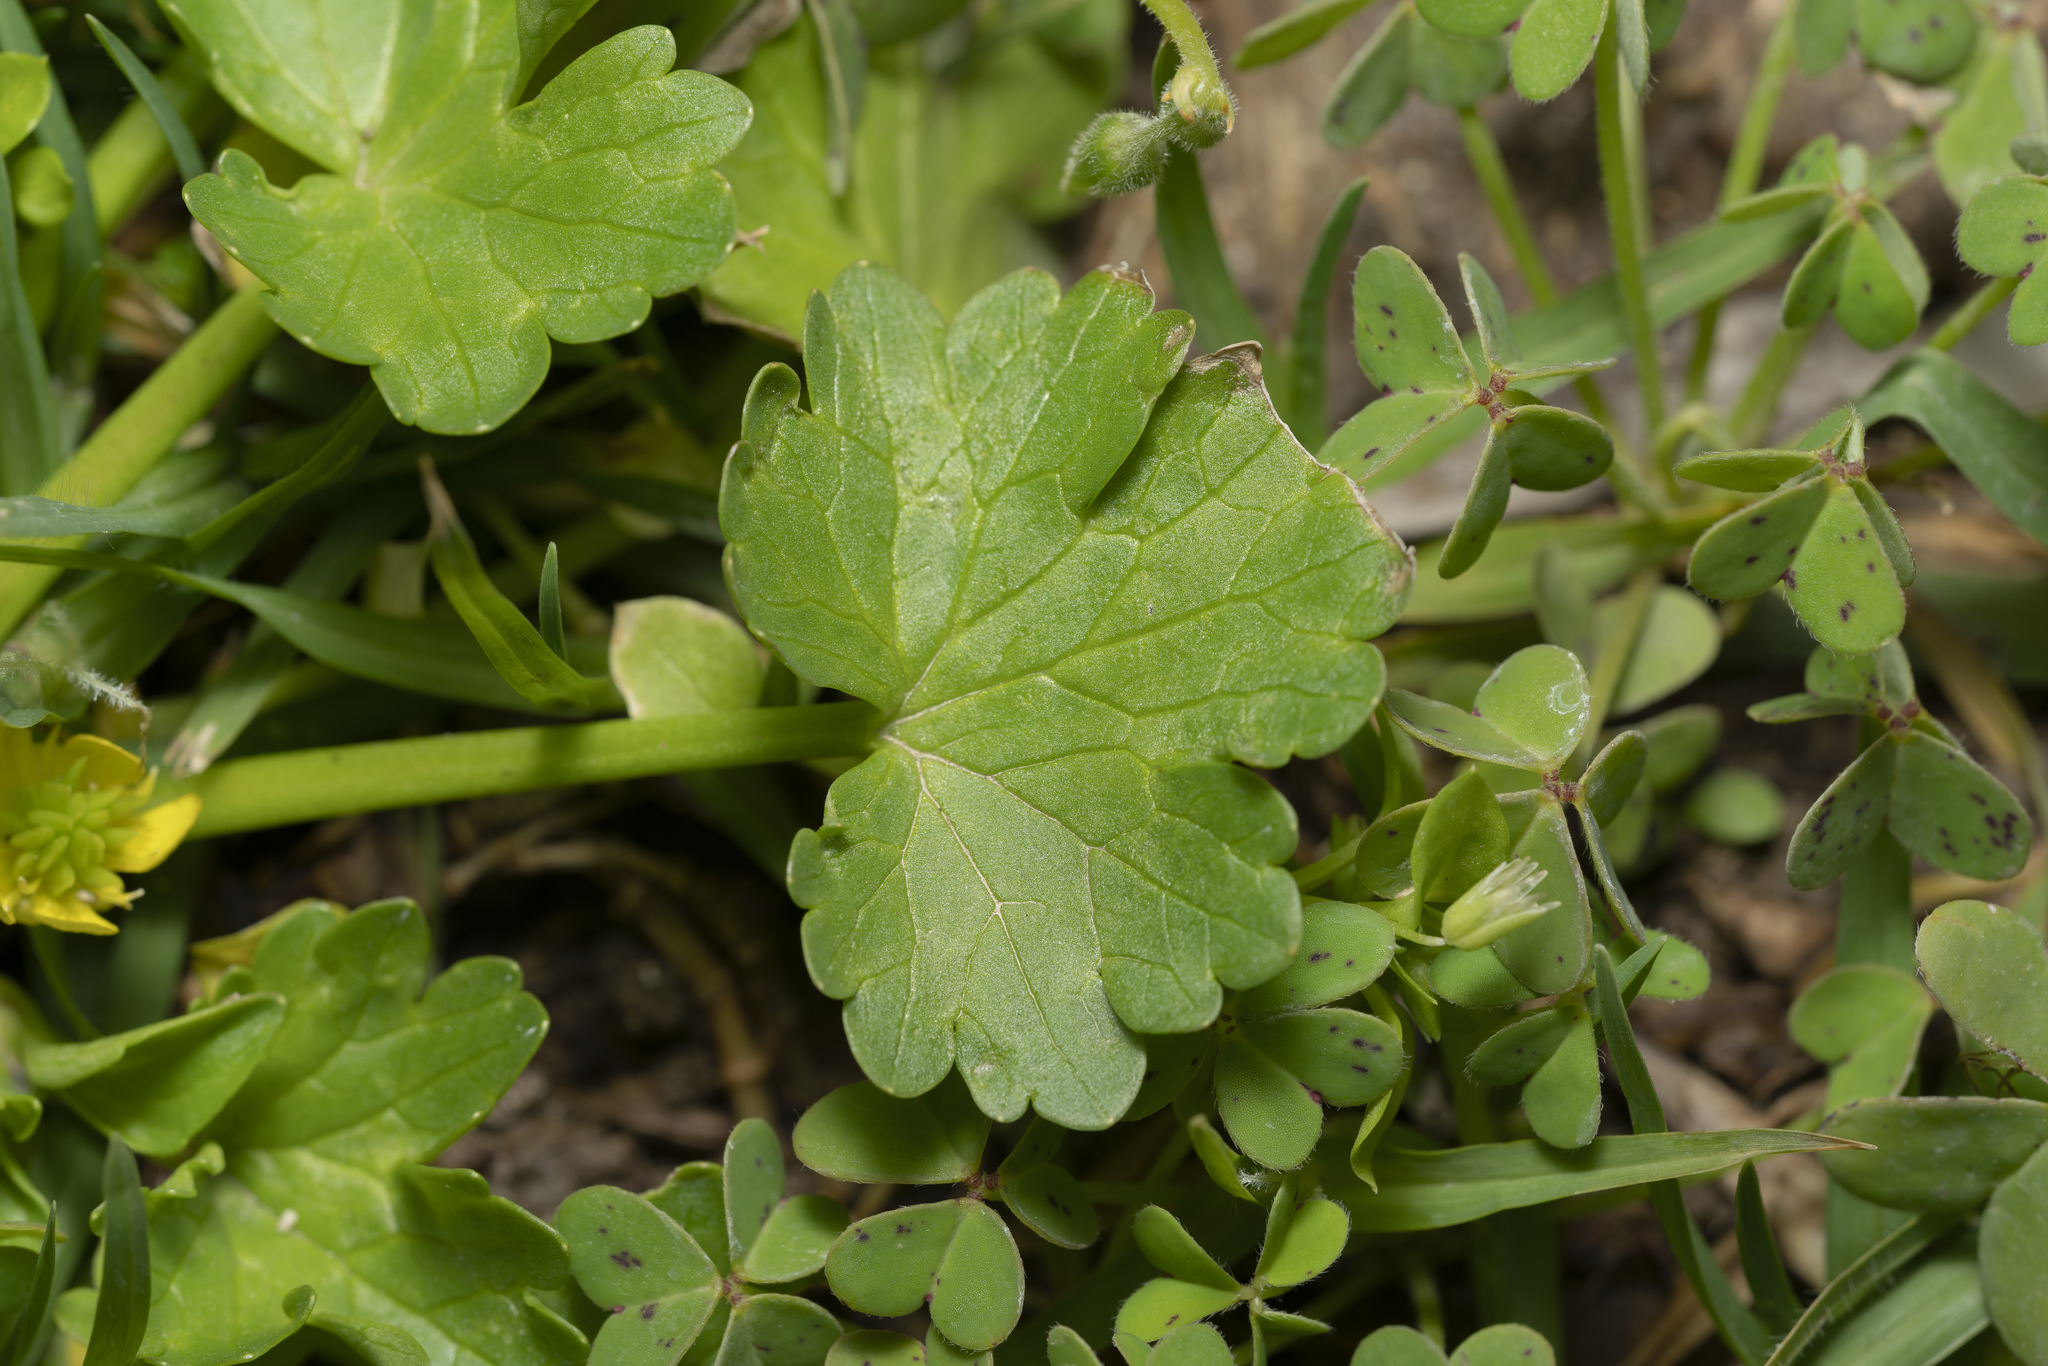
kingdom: Plantae
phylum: Tracheophyta
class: Magnoliopsida
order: Ranunculales
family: Ranunculaceae
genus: Ranunculus
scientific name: Ranunculus muricatus
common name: Rough-fruited buttercup
